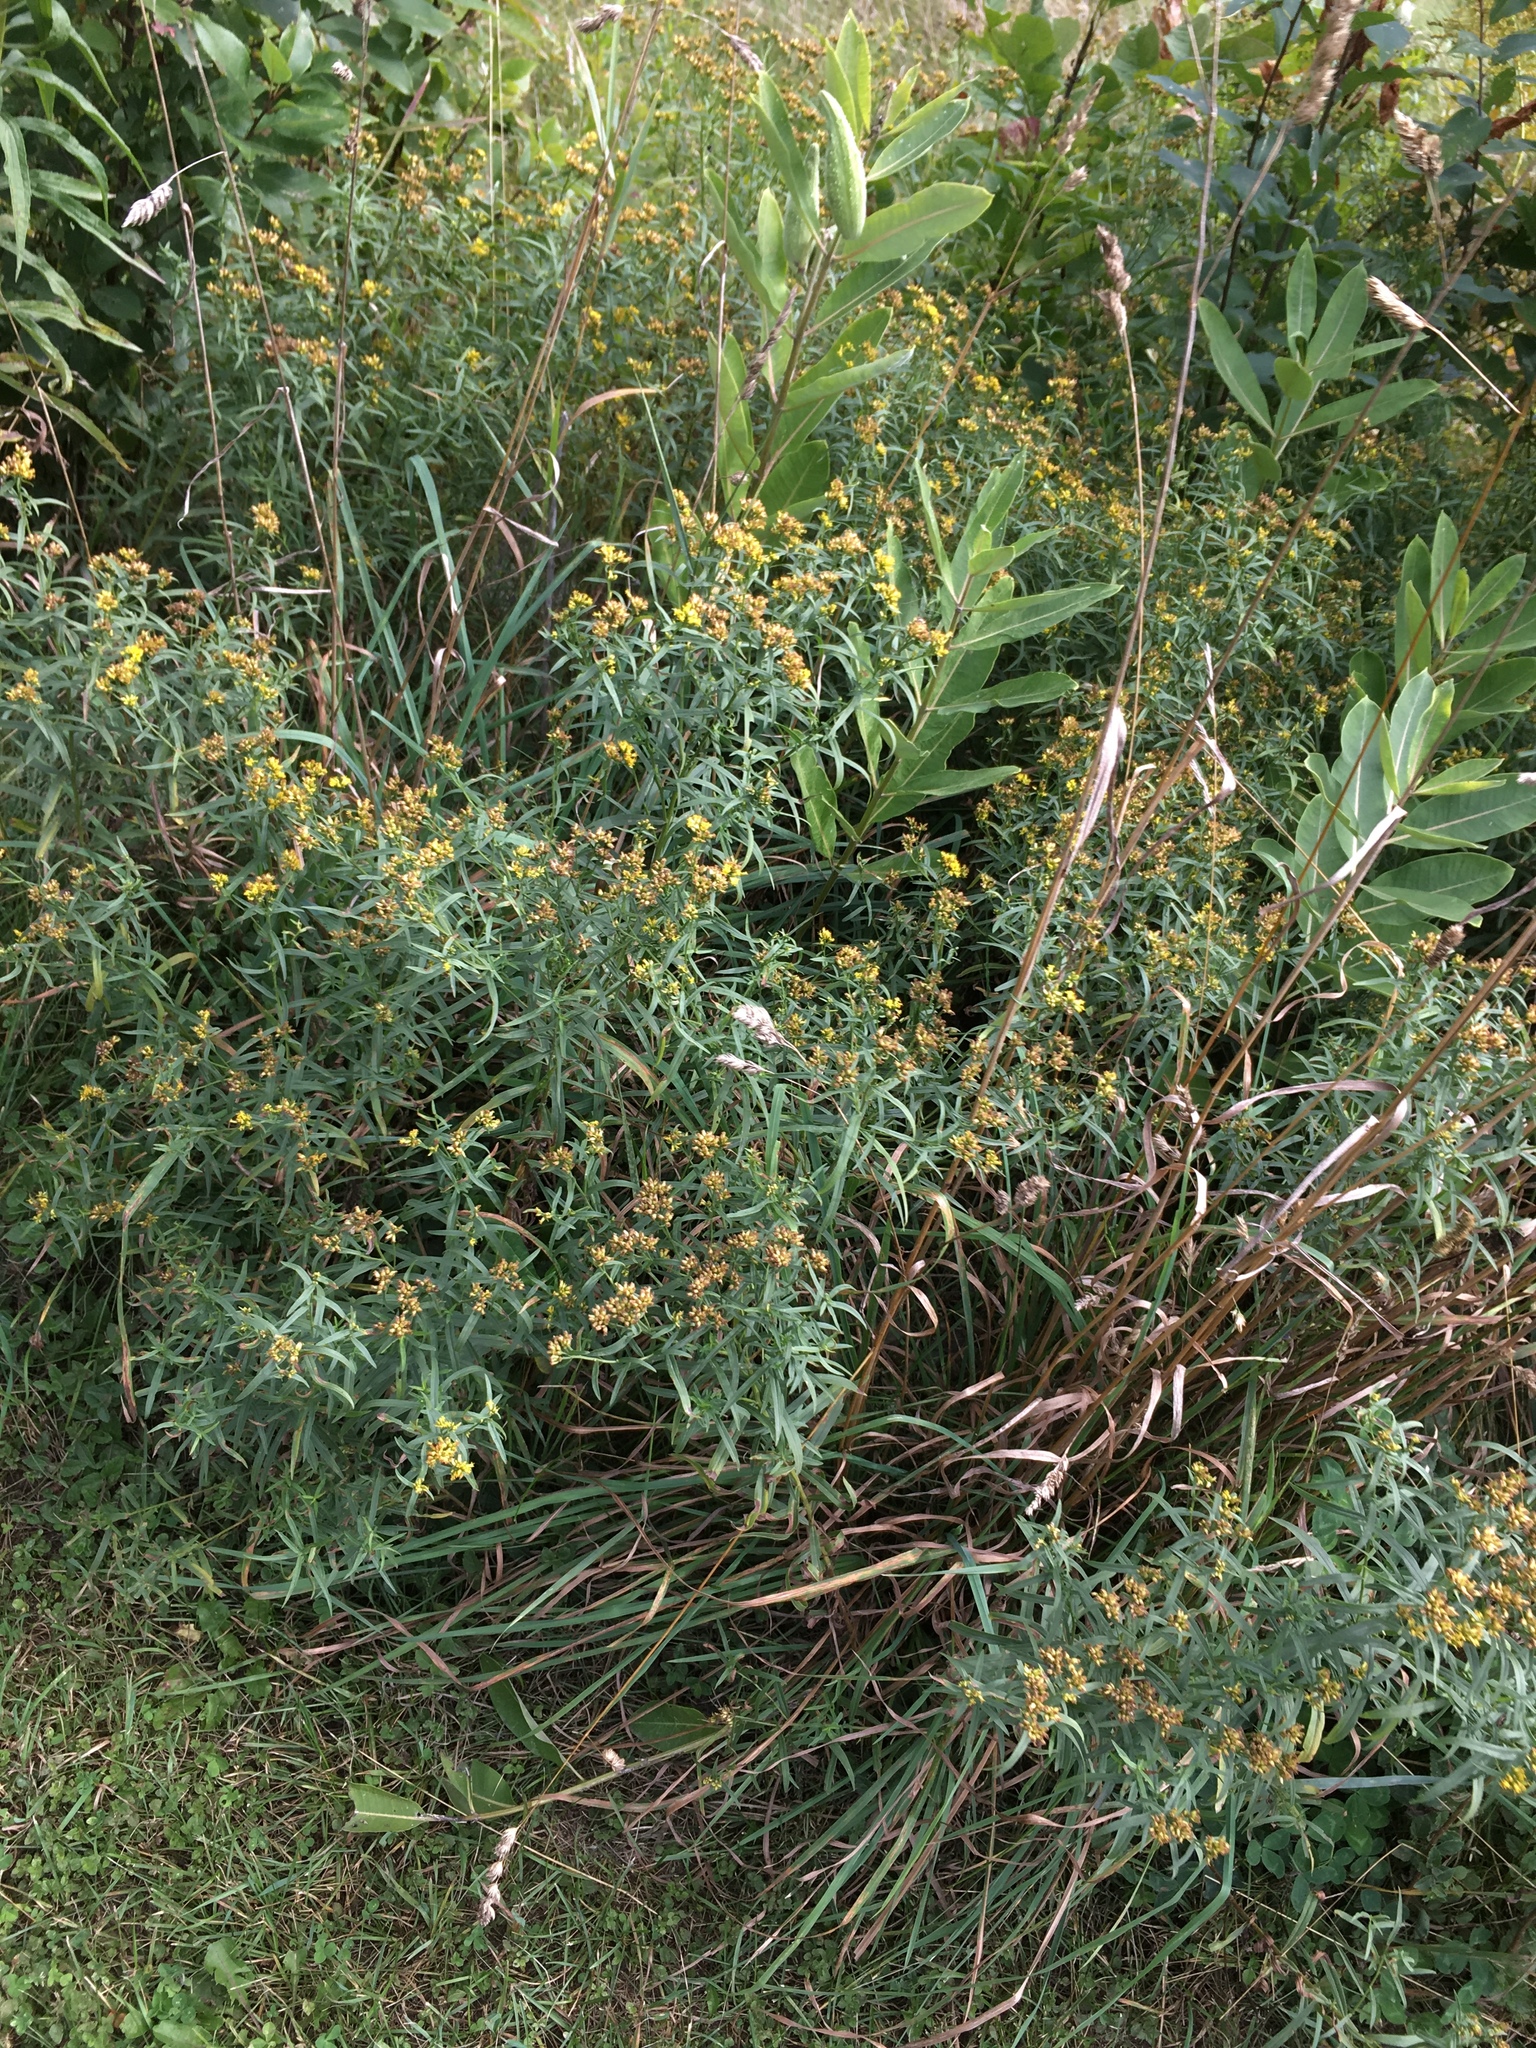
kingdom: Plantae
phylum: Tracheophyta
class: Magnoliopsida
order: Asterales
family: Asteraceae
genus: Euthamia
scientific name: Euthamia graminifolia
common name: Common goldentop
